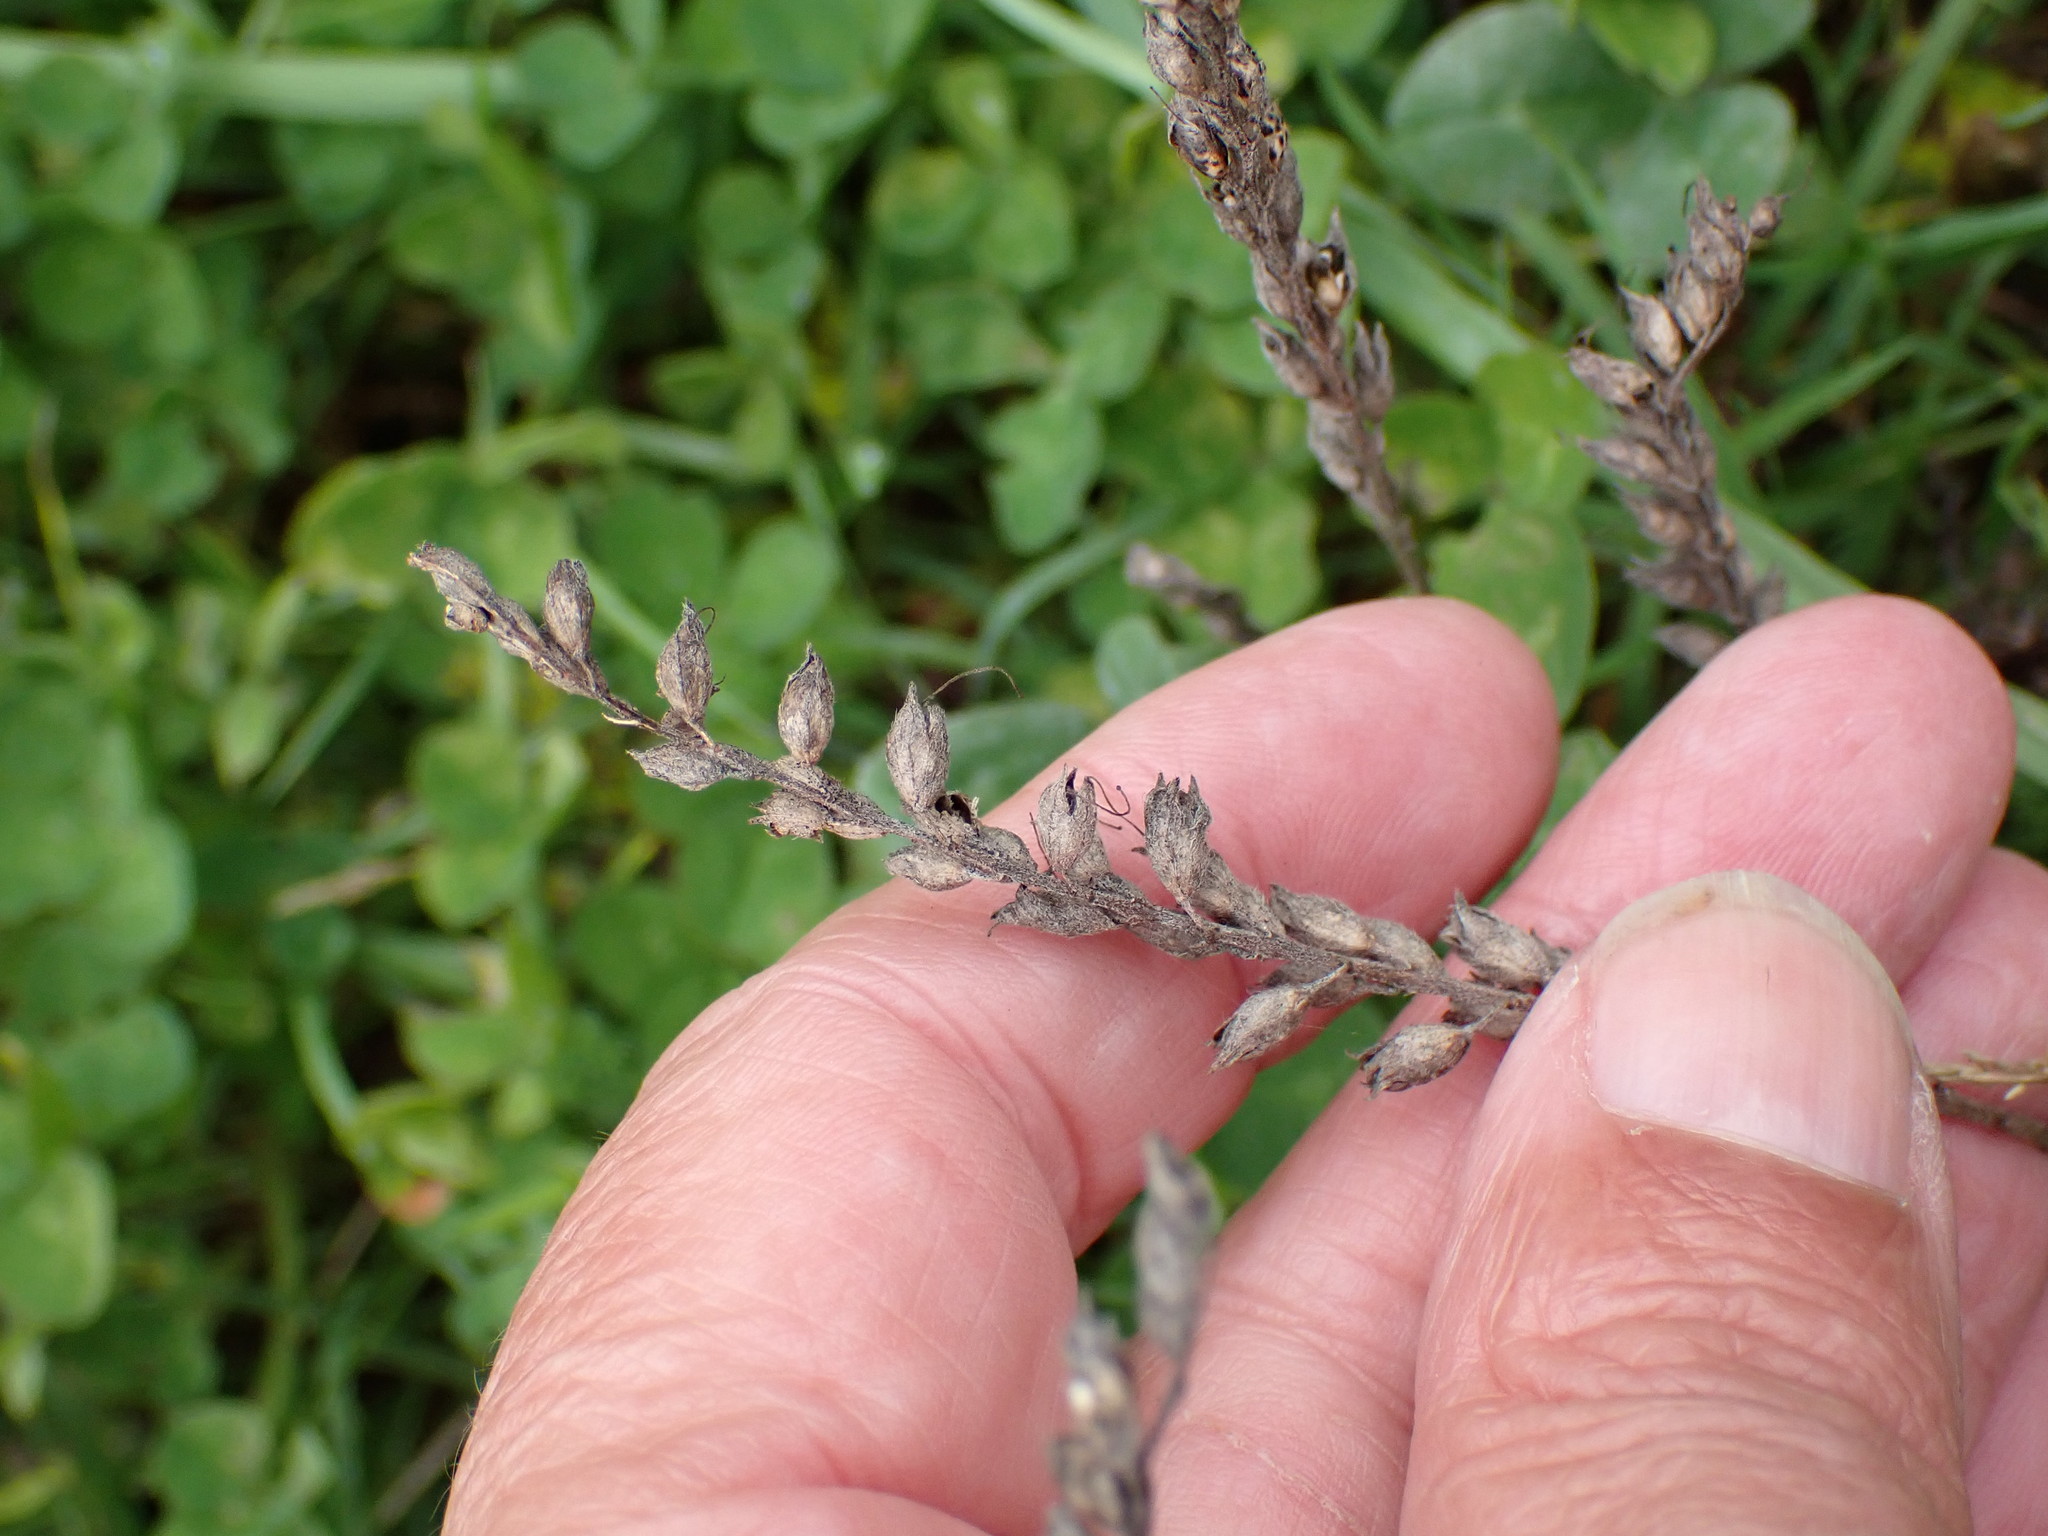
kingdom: Plantae
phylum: Tracheophyta
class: Magnoliopsida
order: Lamiales
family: Orobanchaceae
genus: Odontites
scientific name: Odontites vulgaris
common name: Broomrape
